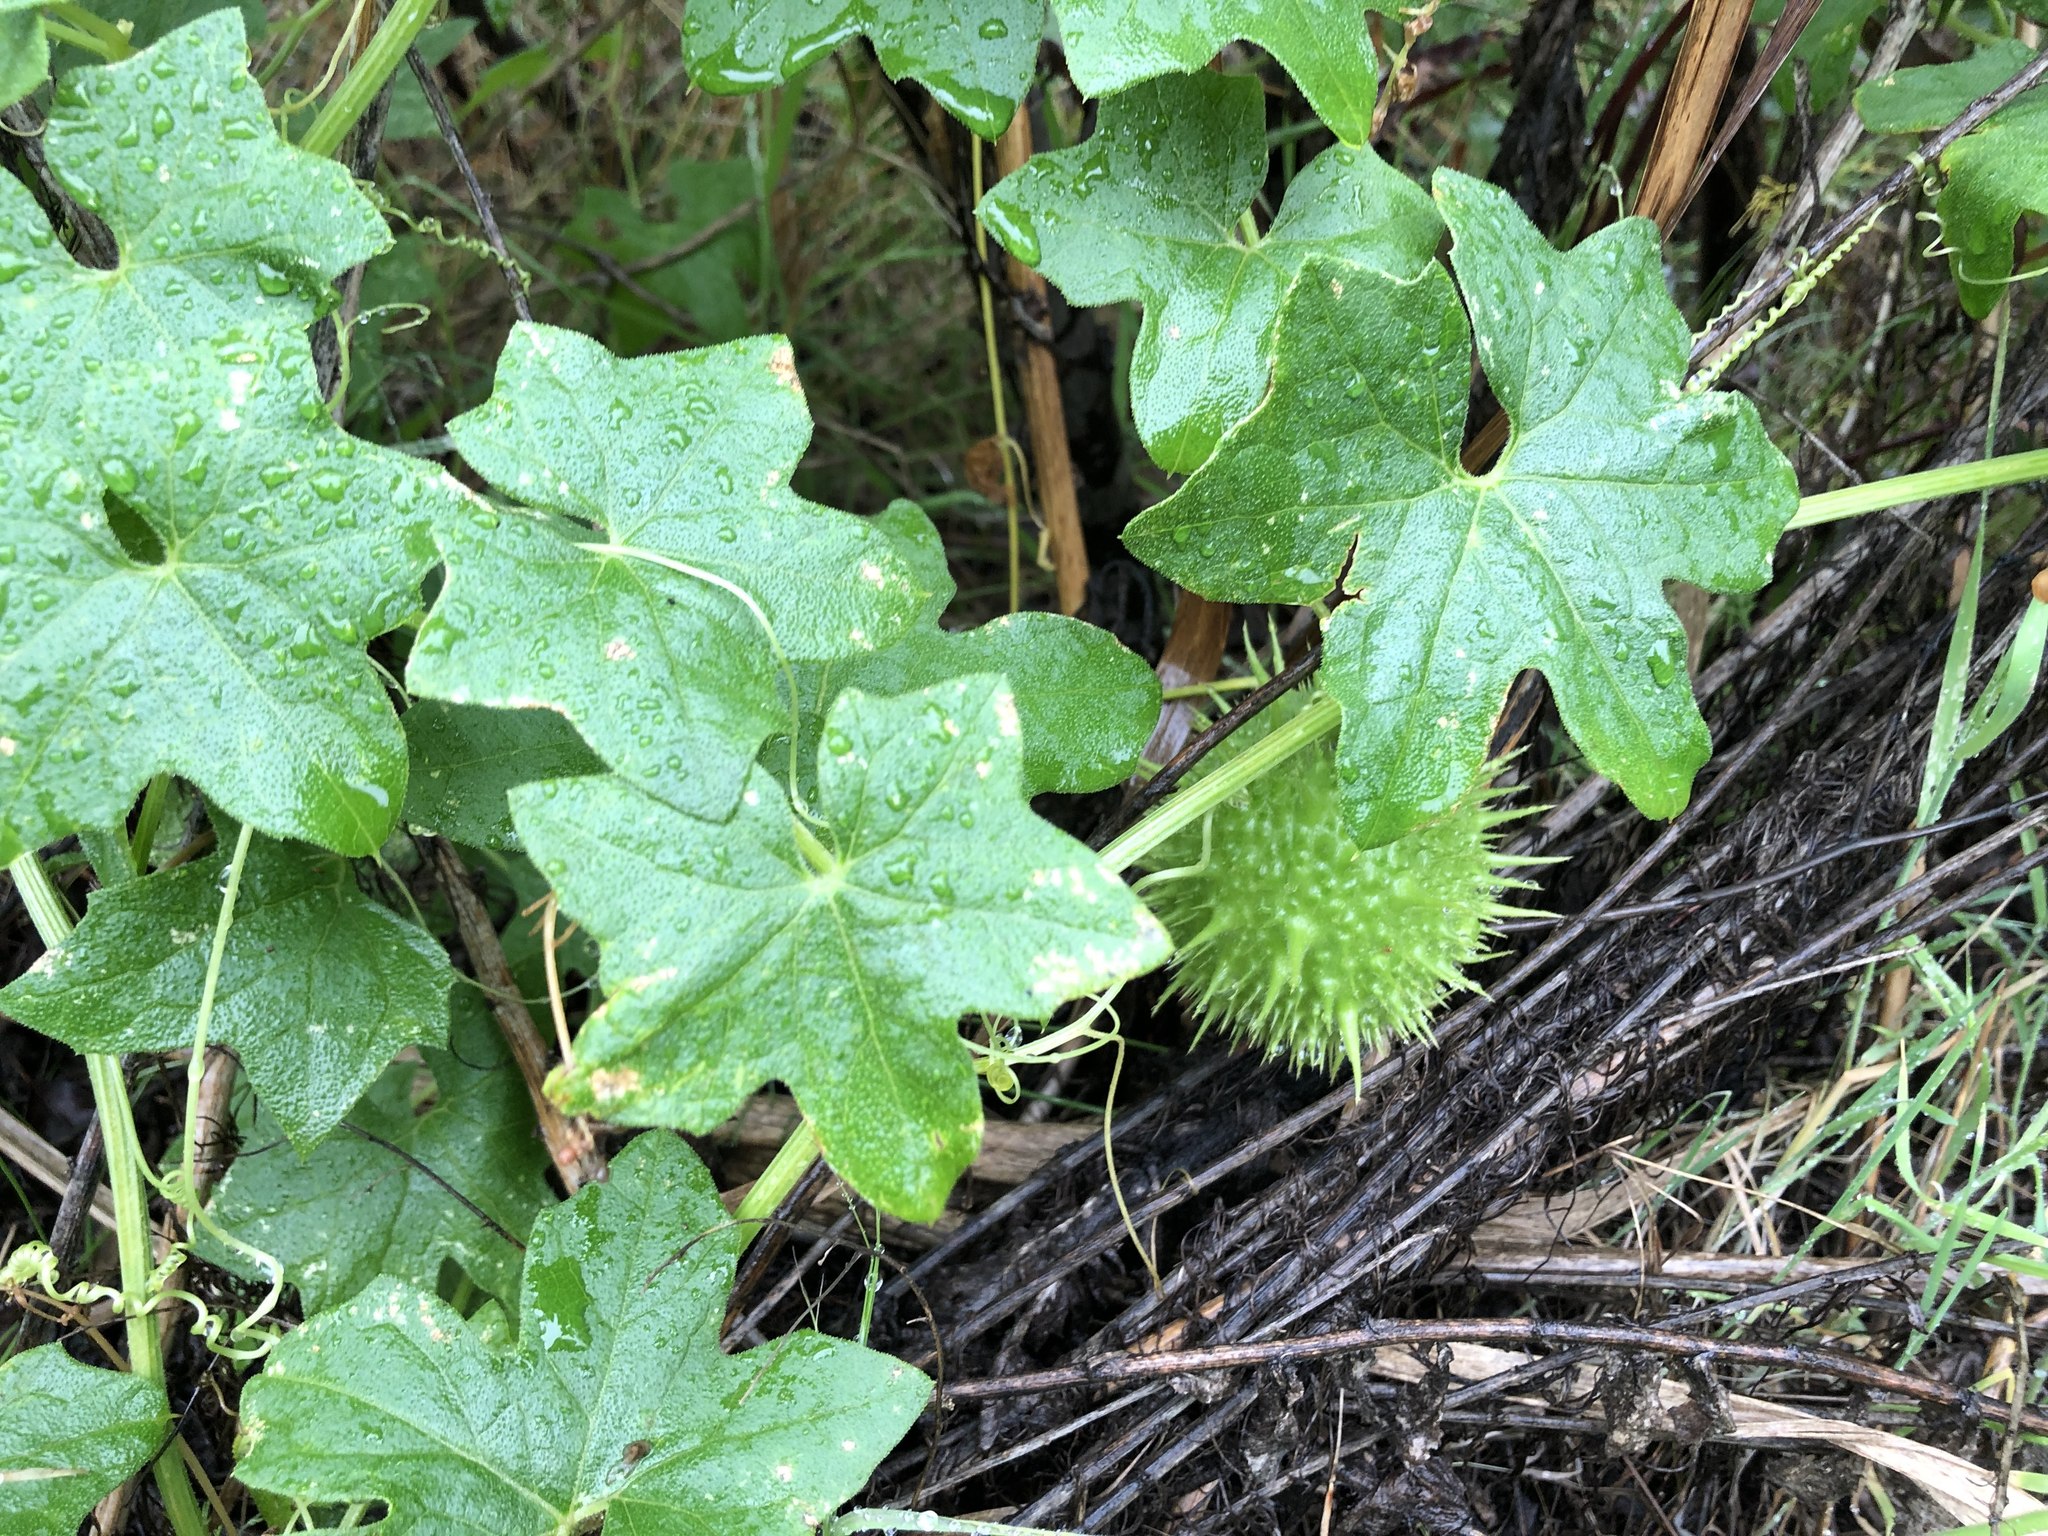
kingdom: Plantae
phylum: Tracheophyta
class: Magnoliopsida
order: Cucurbitales
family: Cucurbitaceae
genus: Marah
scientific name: Marah macrocarpa
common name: Cucamonga manroot
